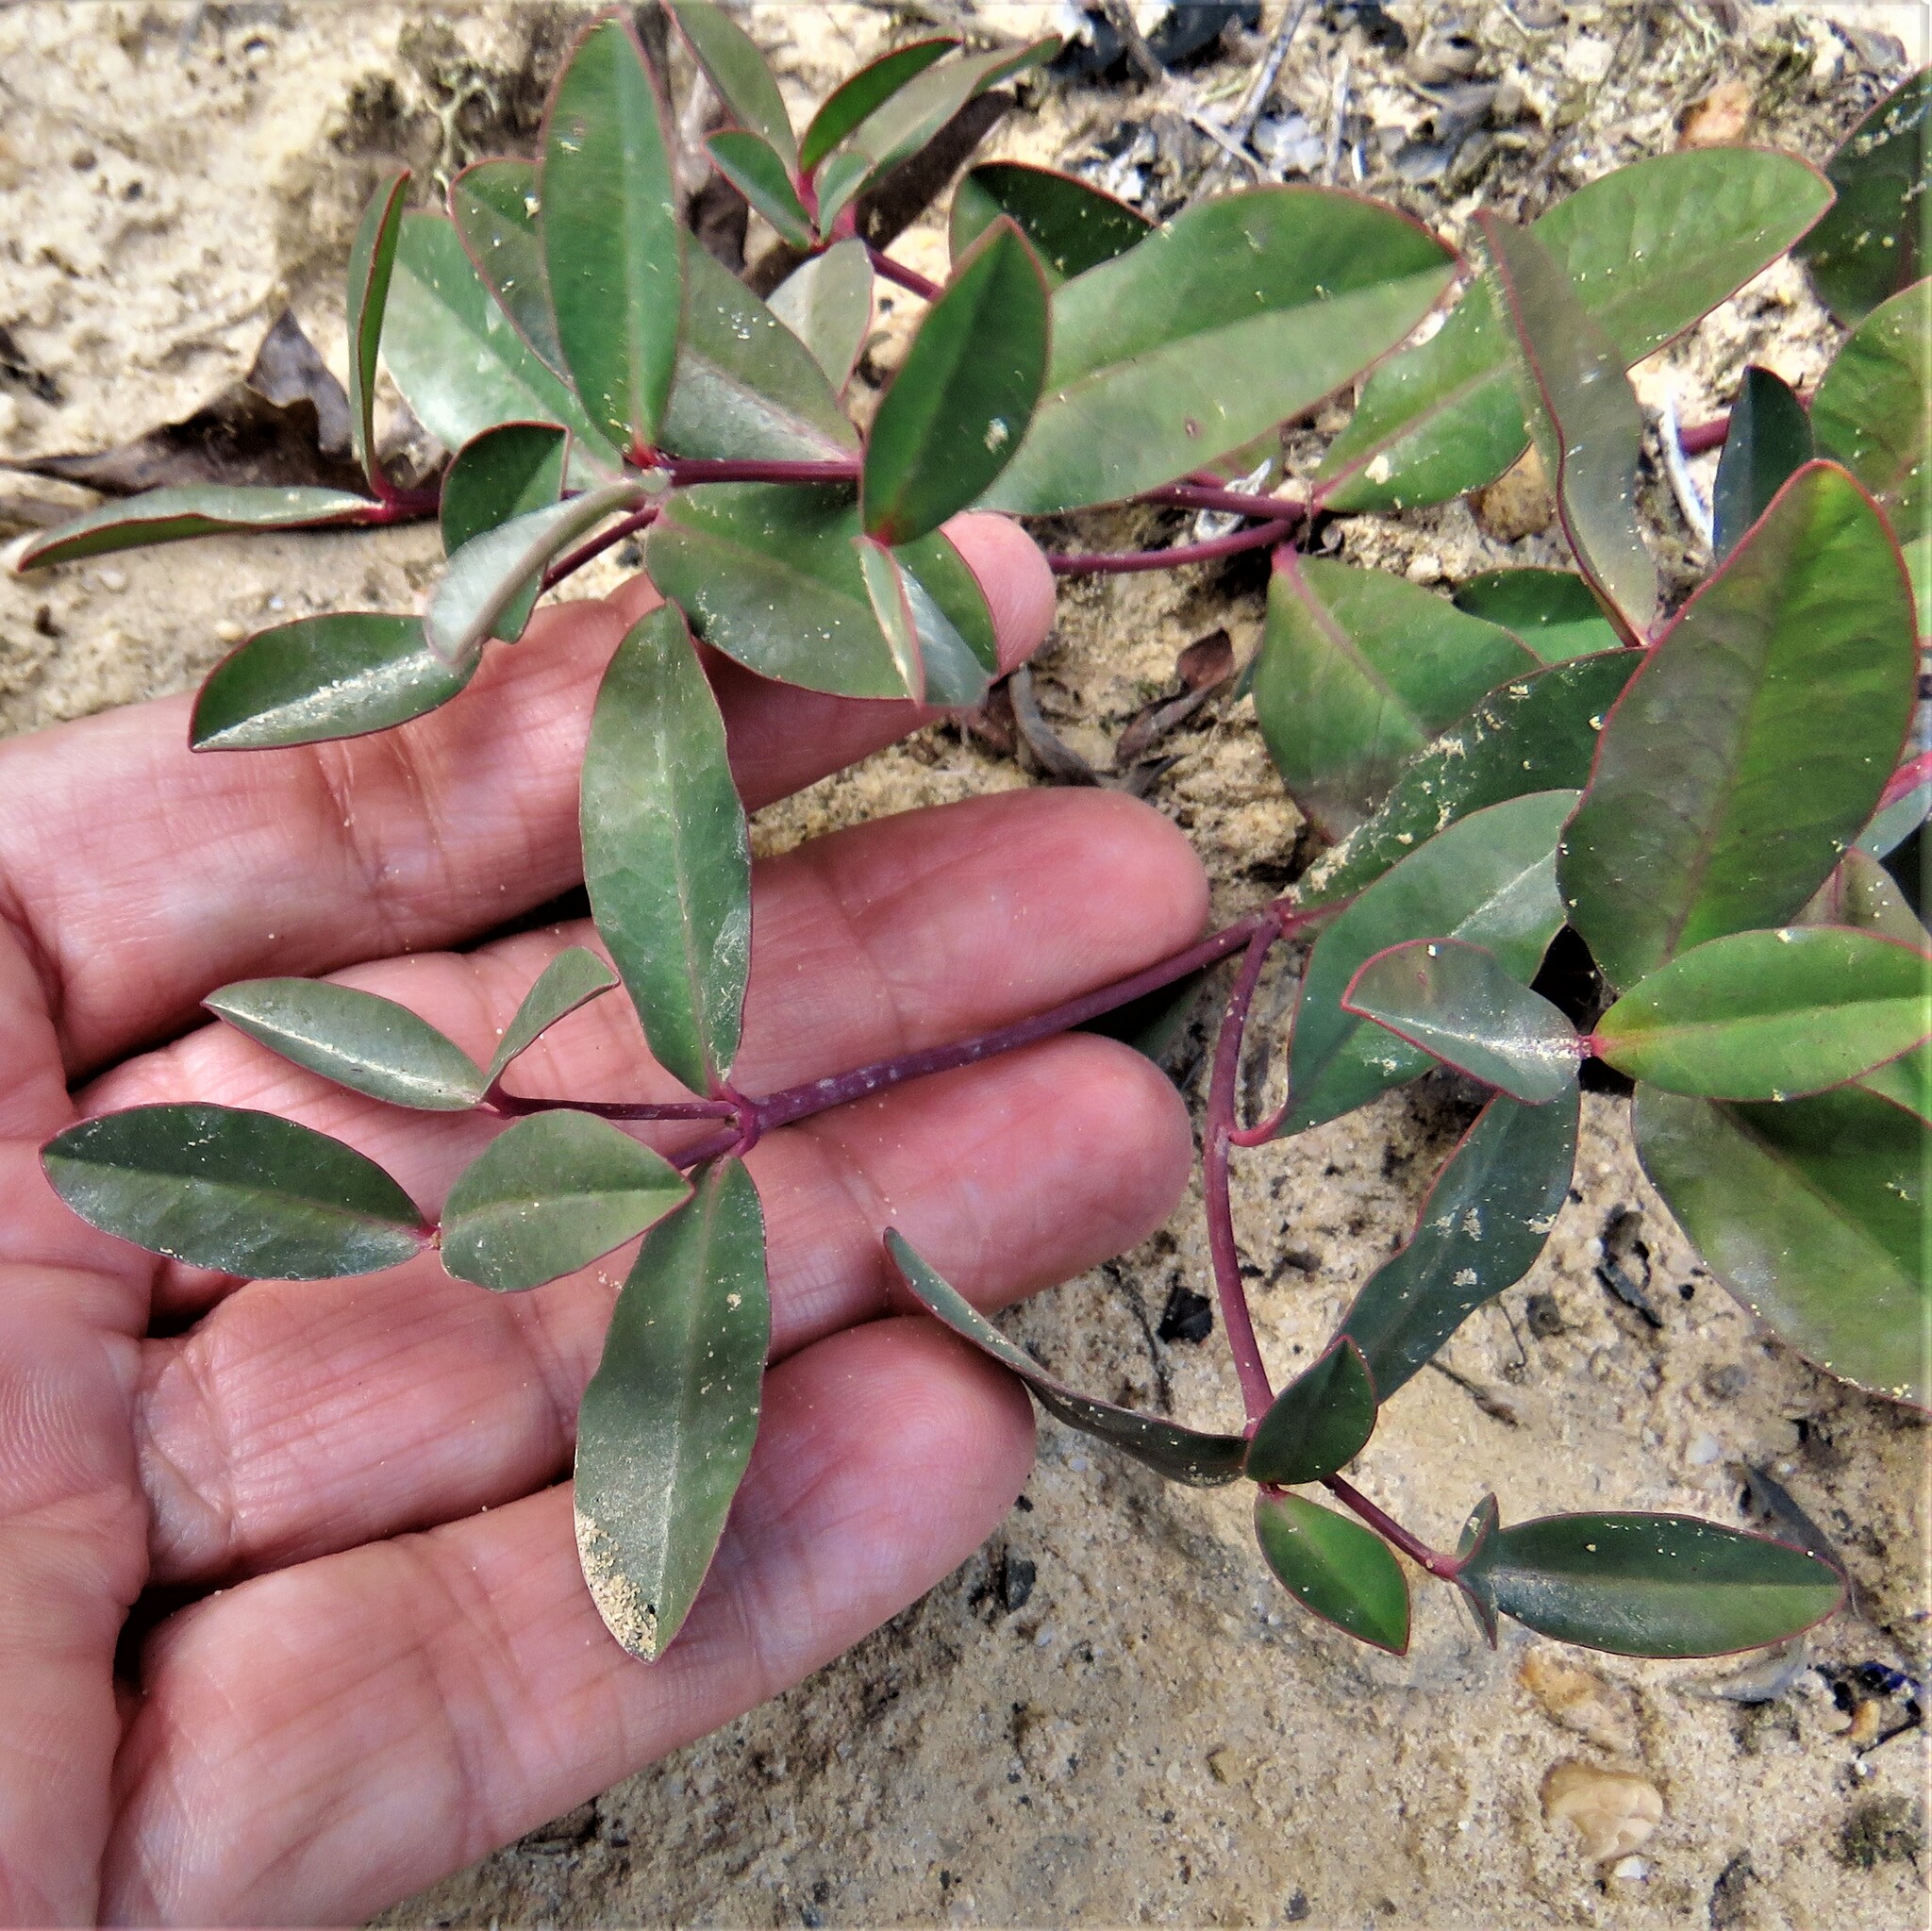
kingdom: Plantae
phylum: Tracheophyta
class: Magnoliopsida
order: Malpighiales
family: Euphorbiaceae
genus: Euphorbia
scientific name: Euphorbia ipecacuanhae
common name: Carolina ipecac
